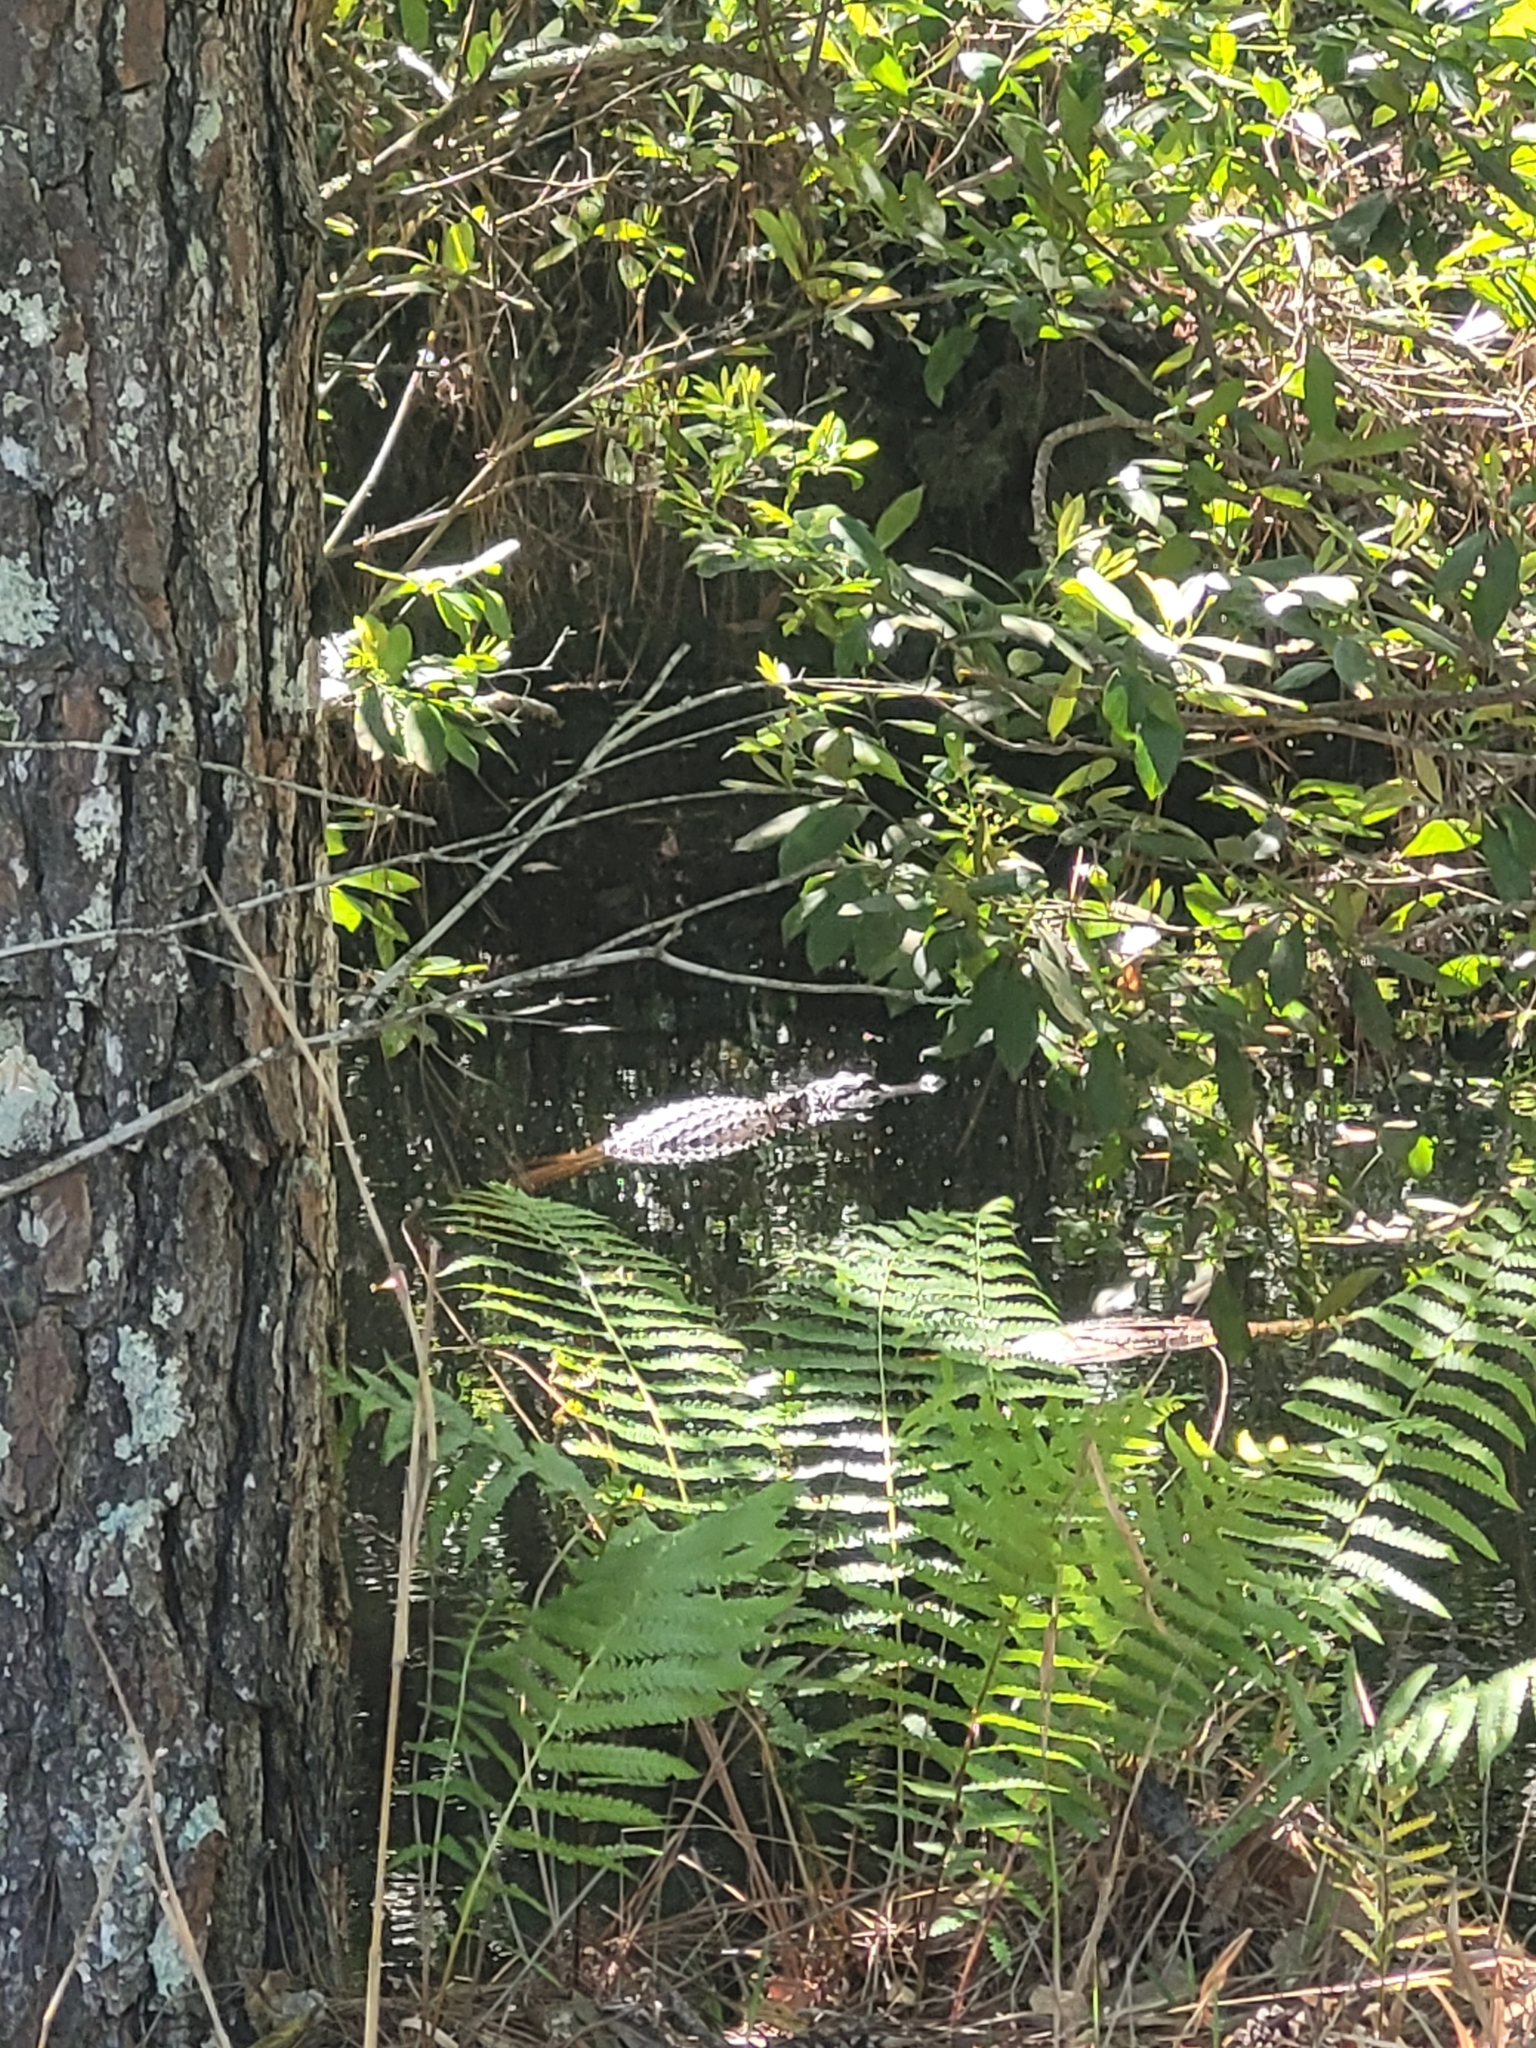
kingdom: Animalia
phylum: Chordata
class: Crocodylia
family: Alligatoridae
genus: Alligator
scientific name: Alligator mississippiensis
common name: American alligator
